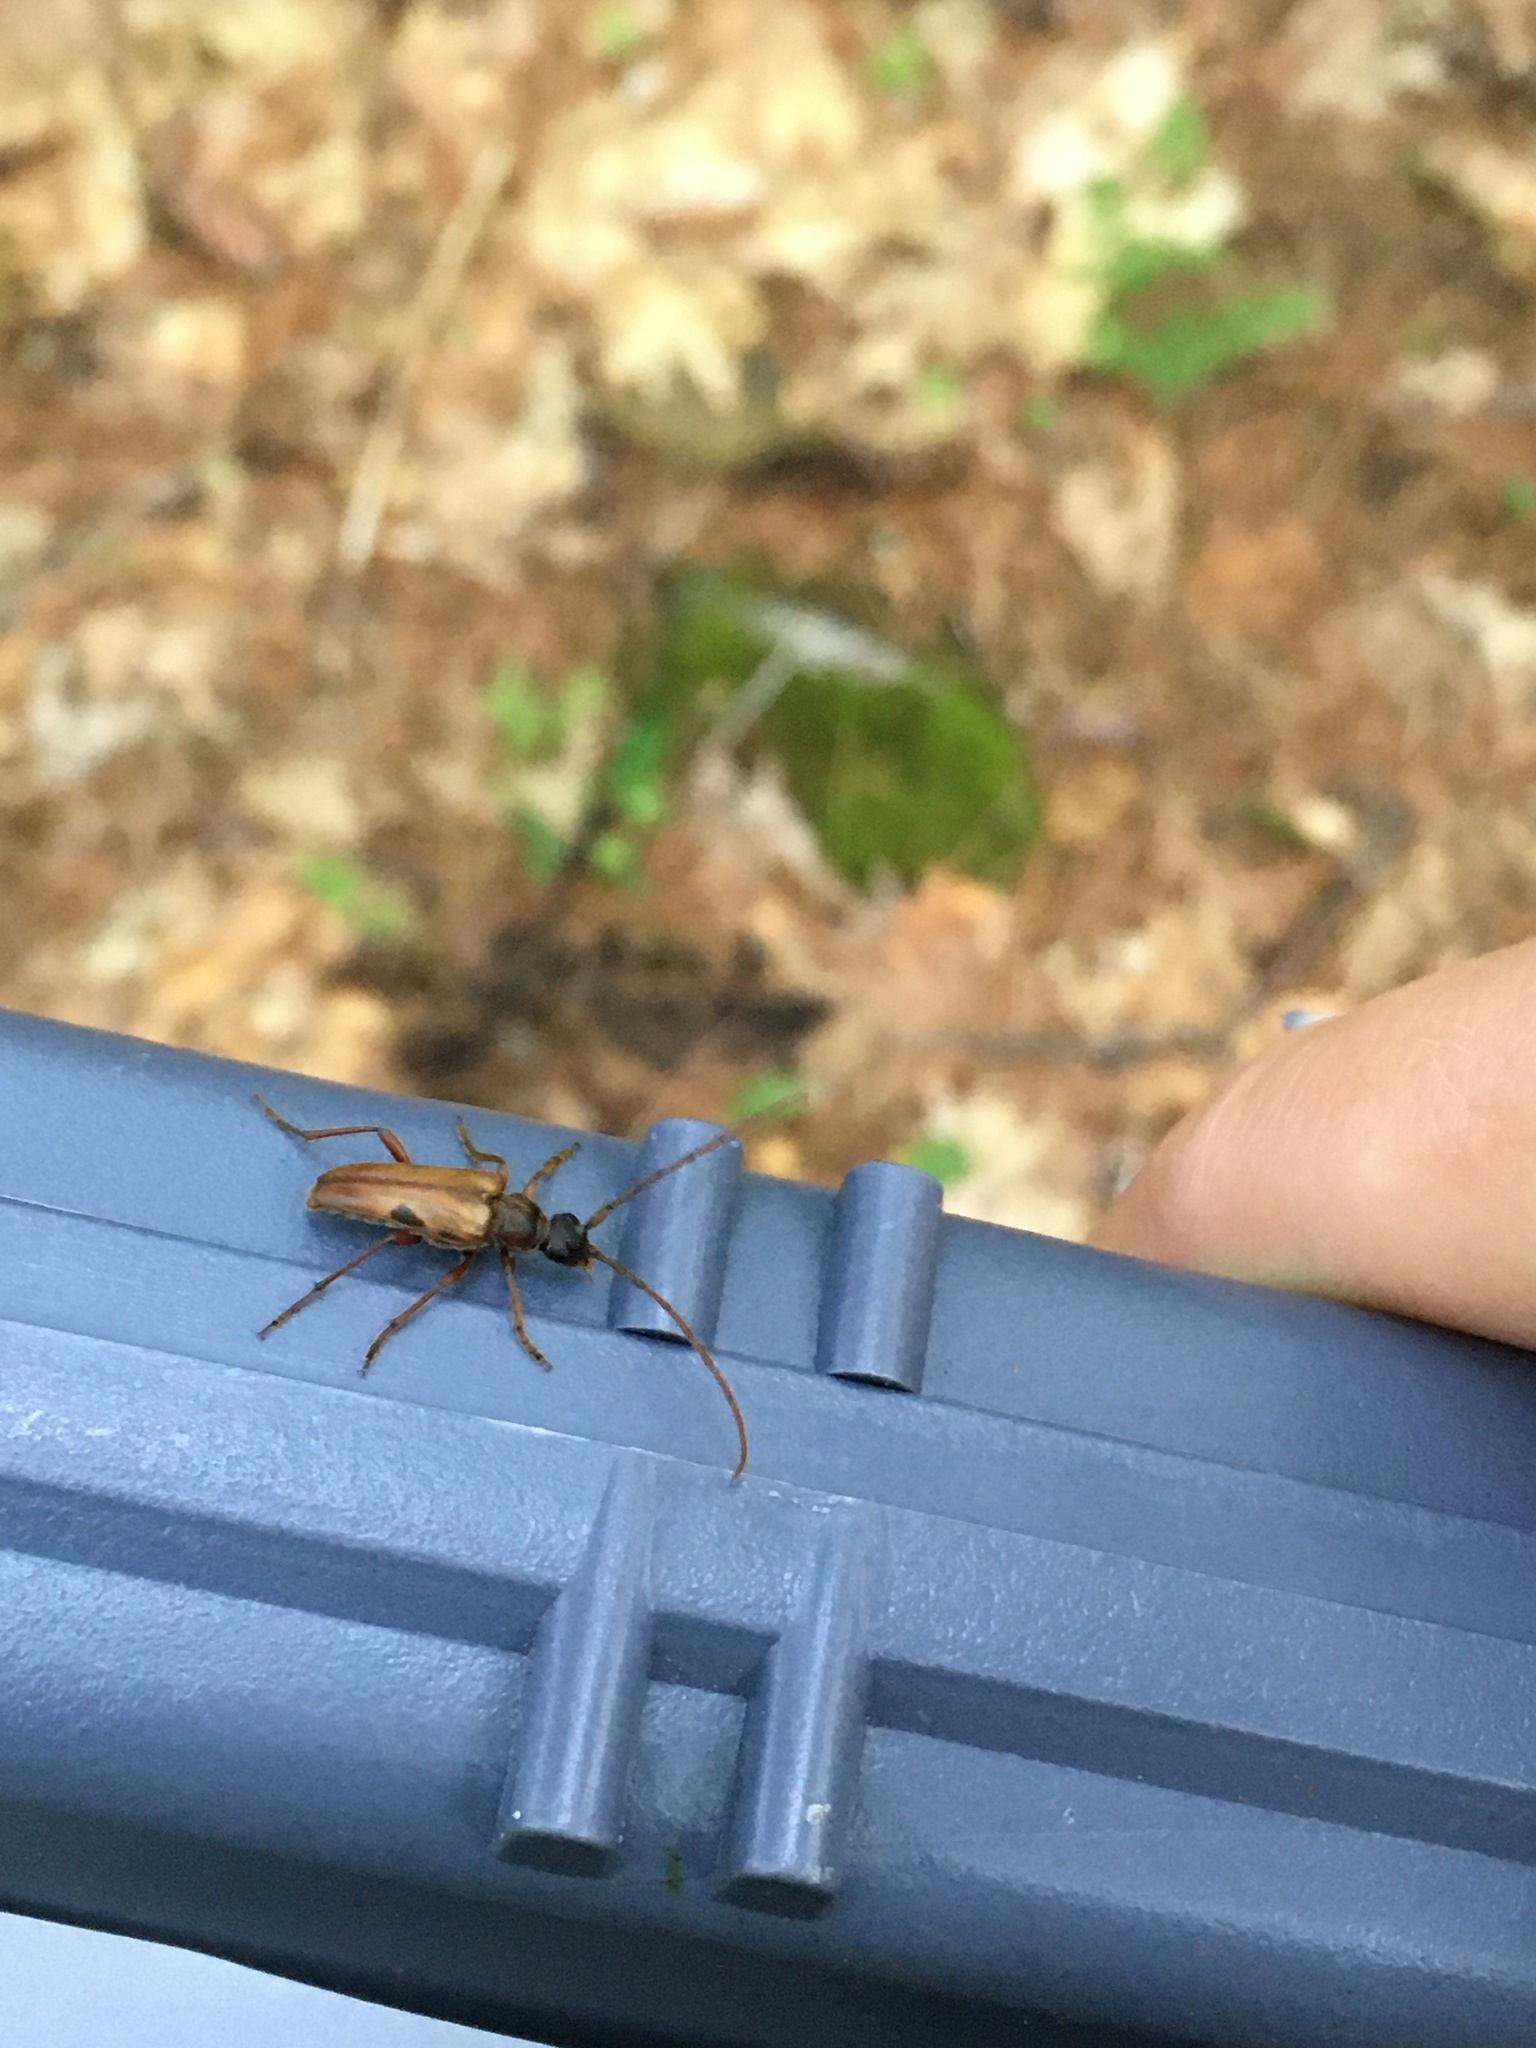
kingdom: Animalia
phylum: Arthropoda
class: Insecta
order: Coleoptera
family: Cerambycidae
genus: Lepturopsis
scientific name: Lepturopsis biforis
